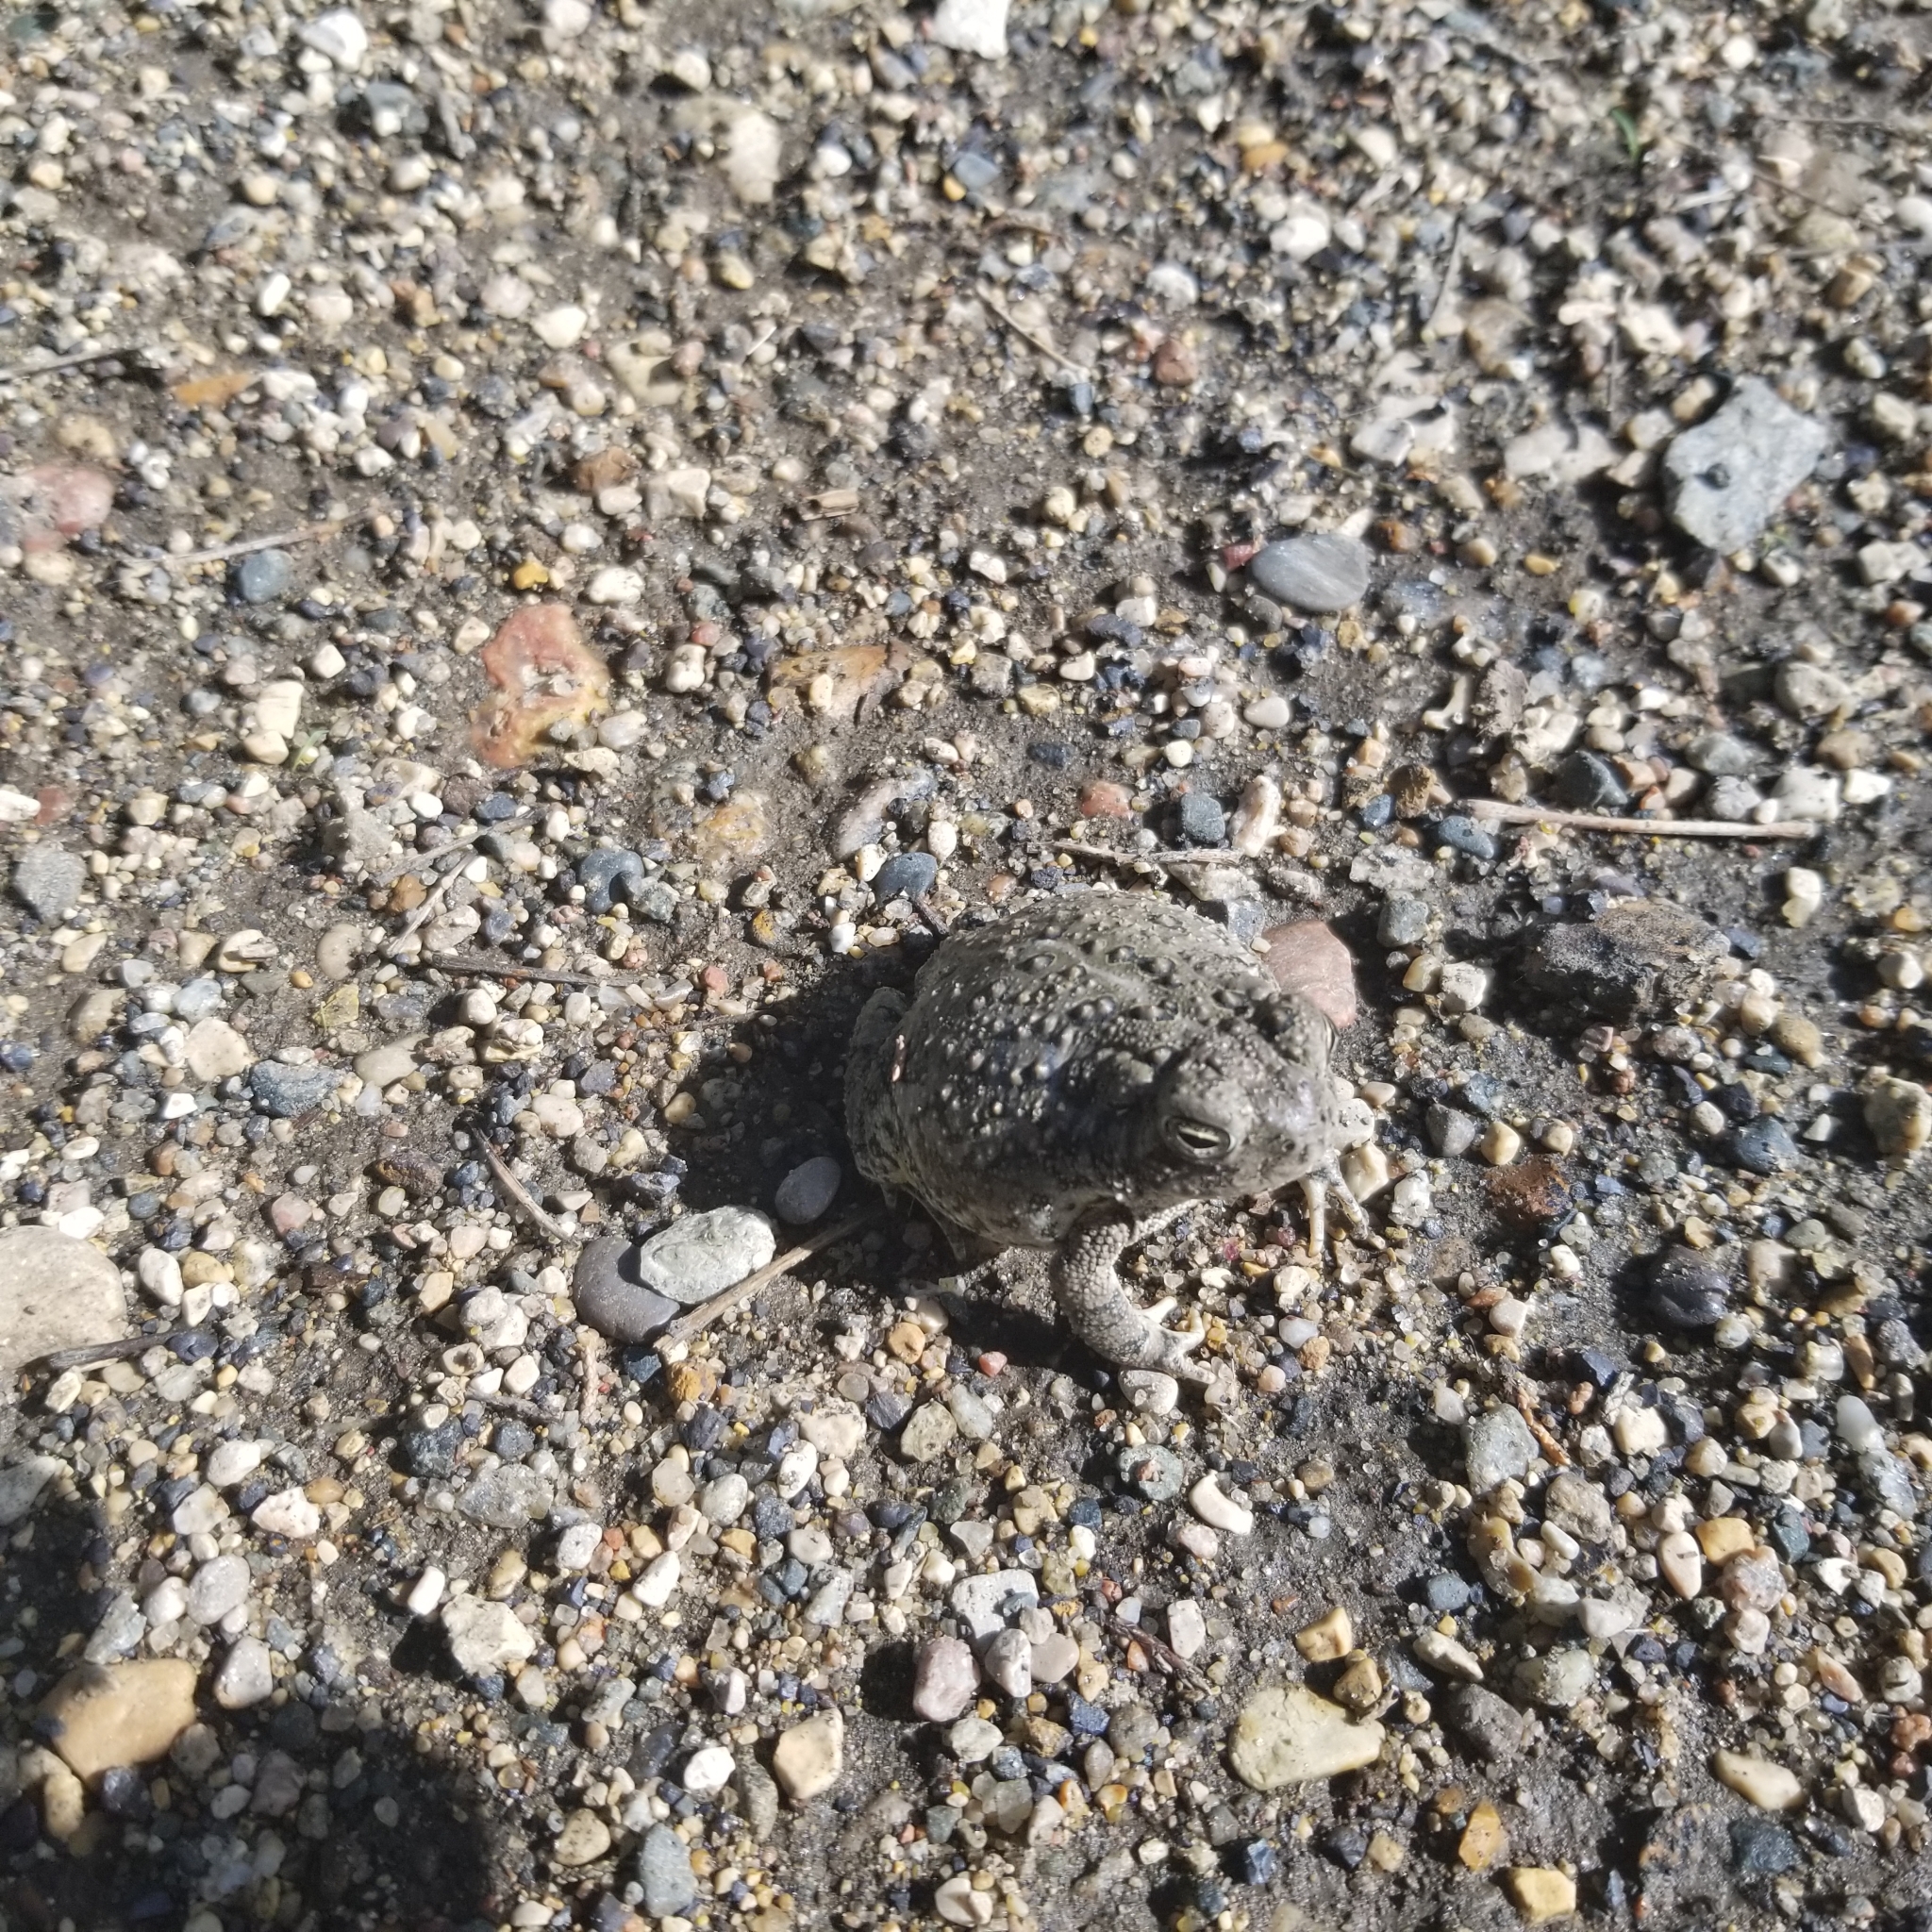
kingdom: Animalia
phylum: Chordata
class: Amphibia
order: Anura
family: Bufonidae
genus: Anaxyrus
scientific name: Anaxyrus woodhousii
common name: Woodhouse's toad
